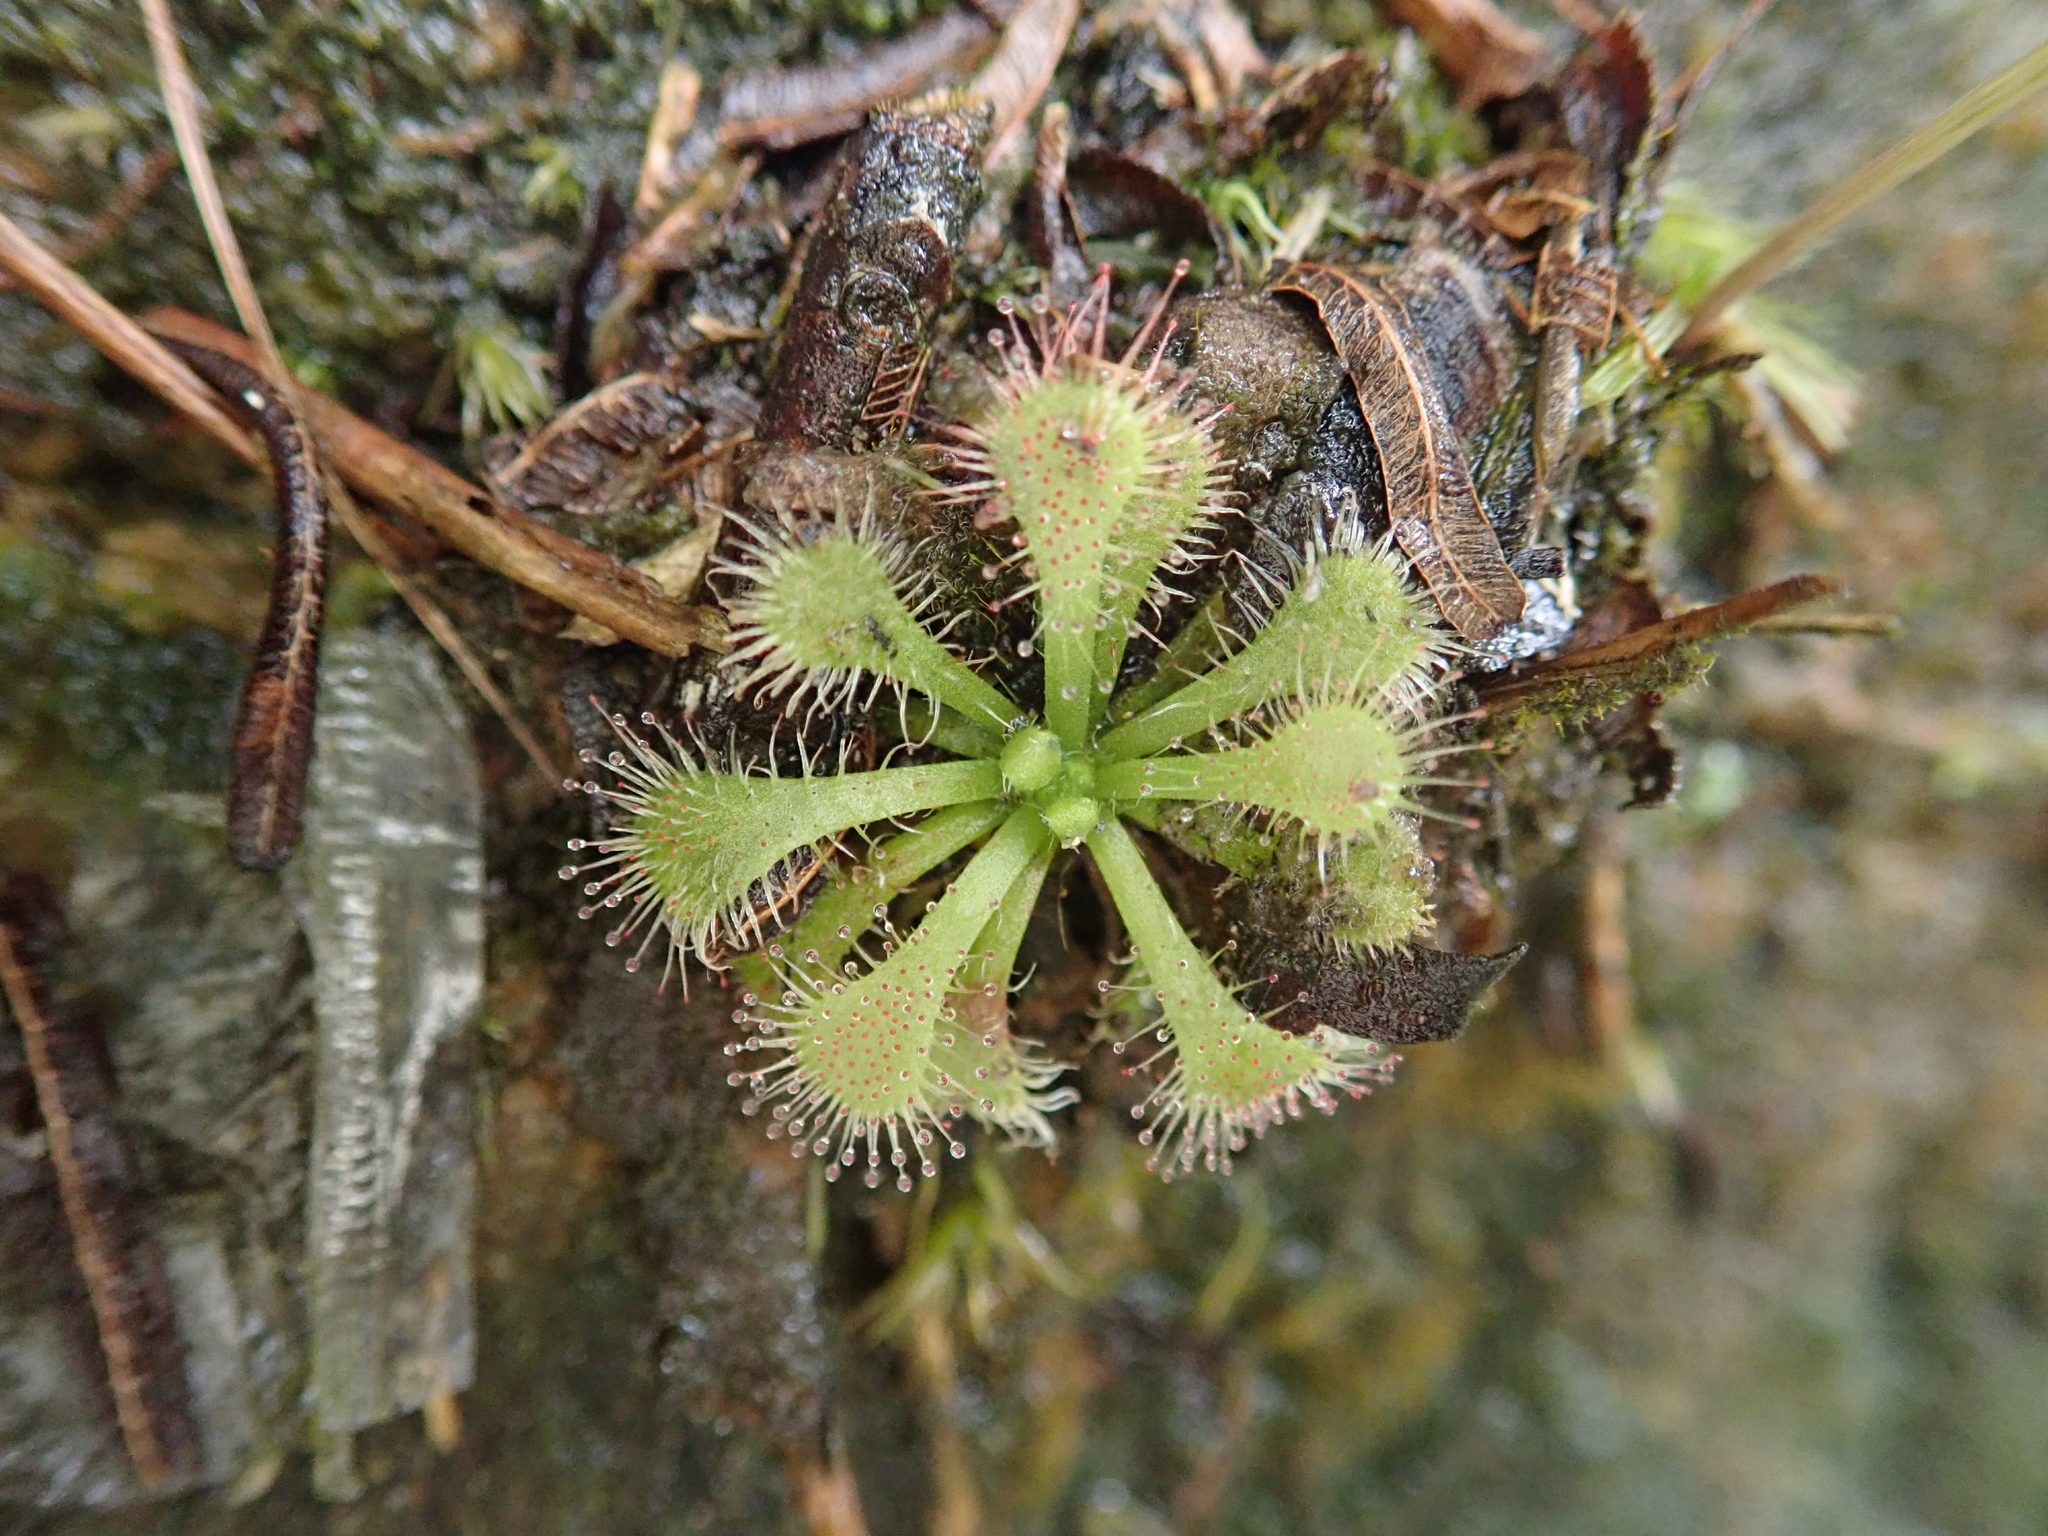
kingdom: Plantae
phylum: Tracheophyta
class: Magnoliopsida
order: Caryophyllales
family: Droseraceae
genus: Drosera
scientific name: Drosera spatulata
